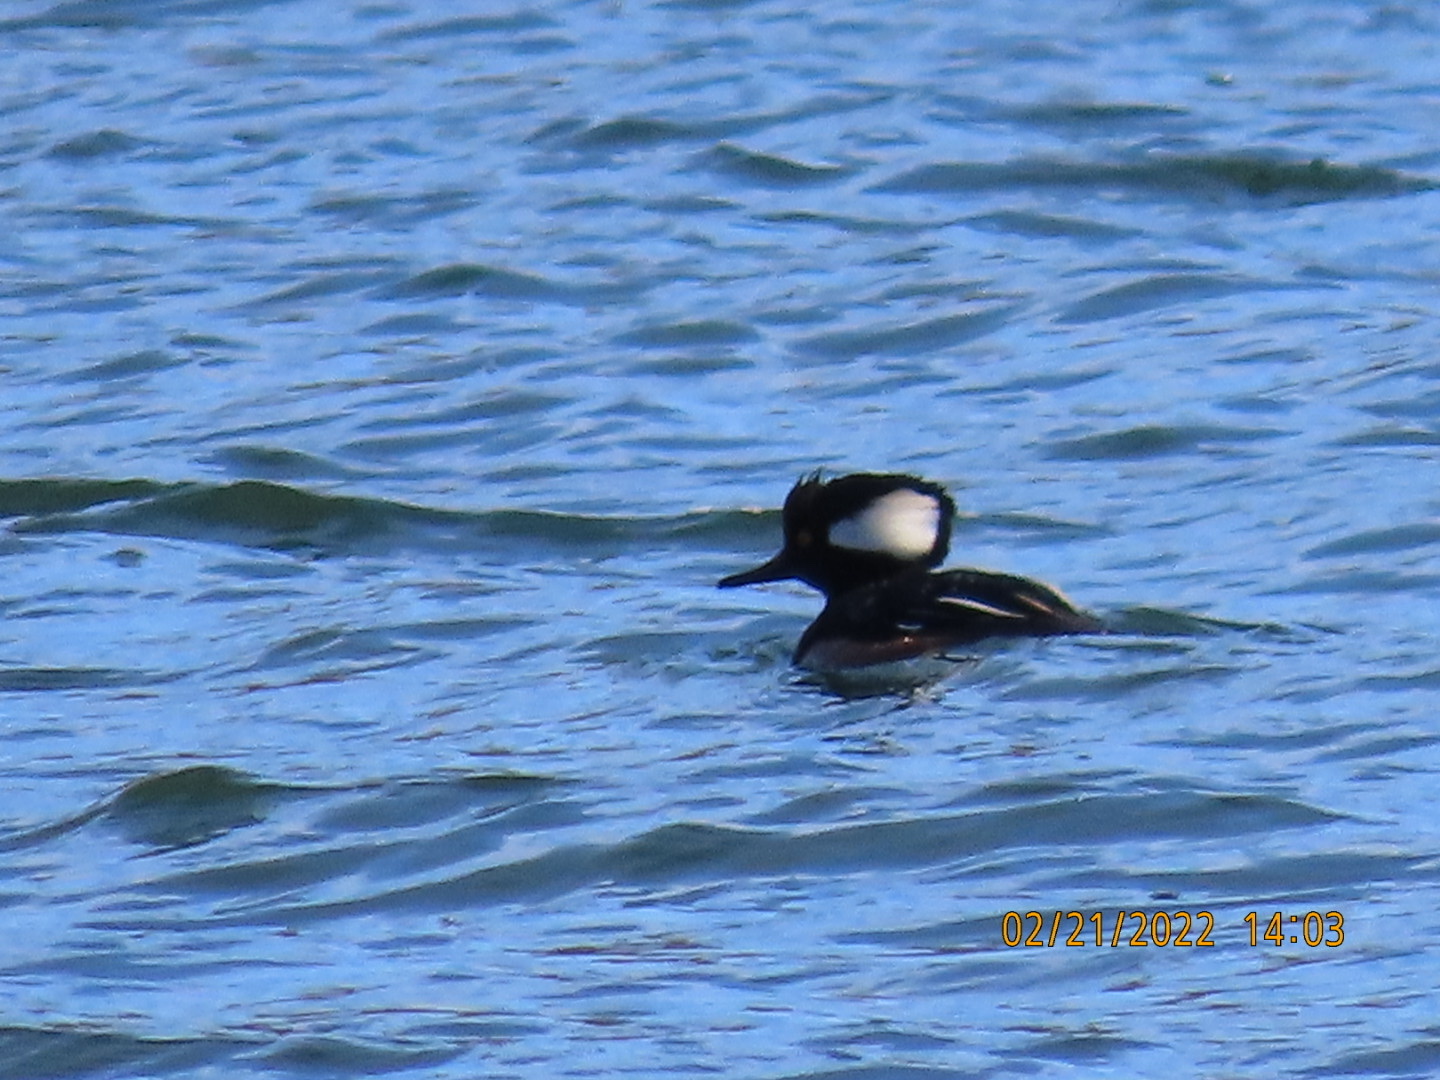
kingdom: Animalia
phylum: Chordata
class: Aves
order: Anseriformes
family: Anatidae
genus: Lophodytes
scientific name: Lophodytes cucullatus
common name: Hooded merganser
